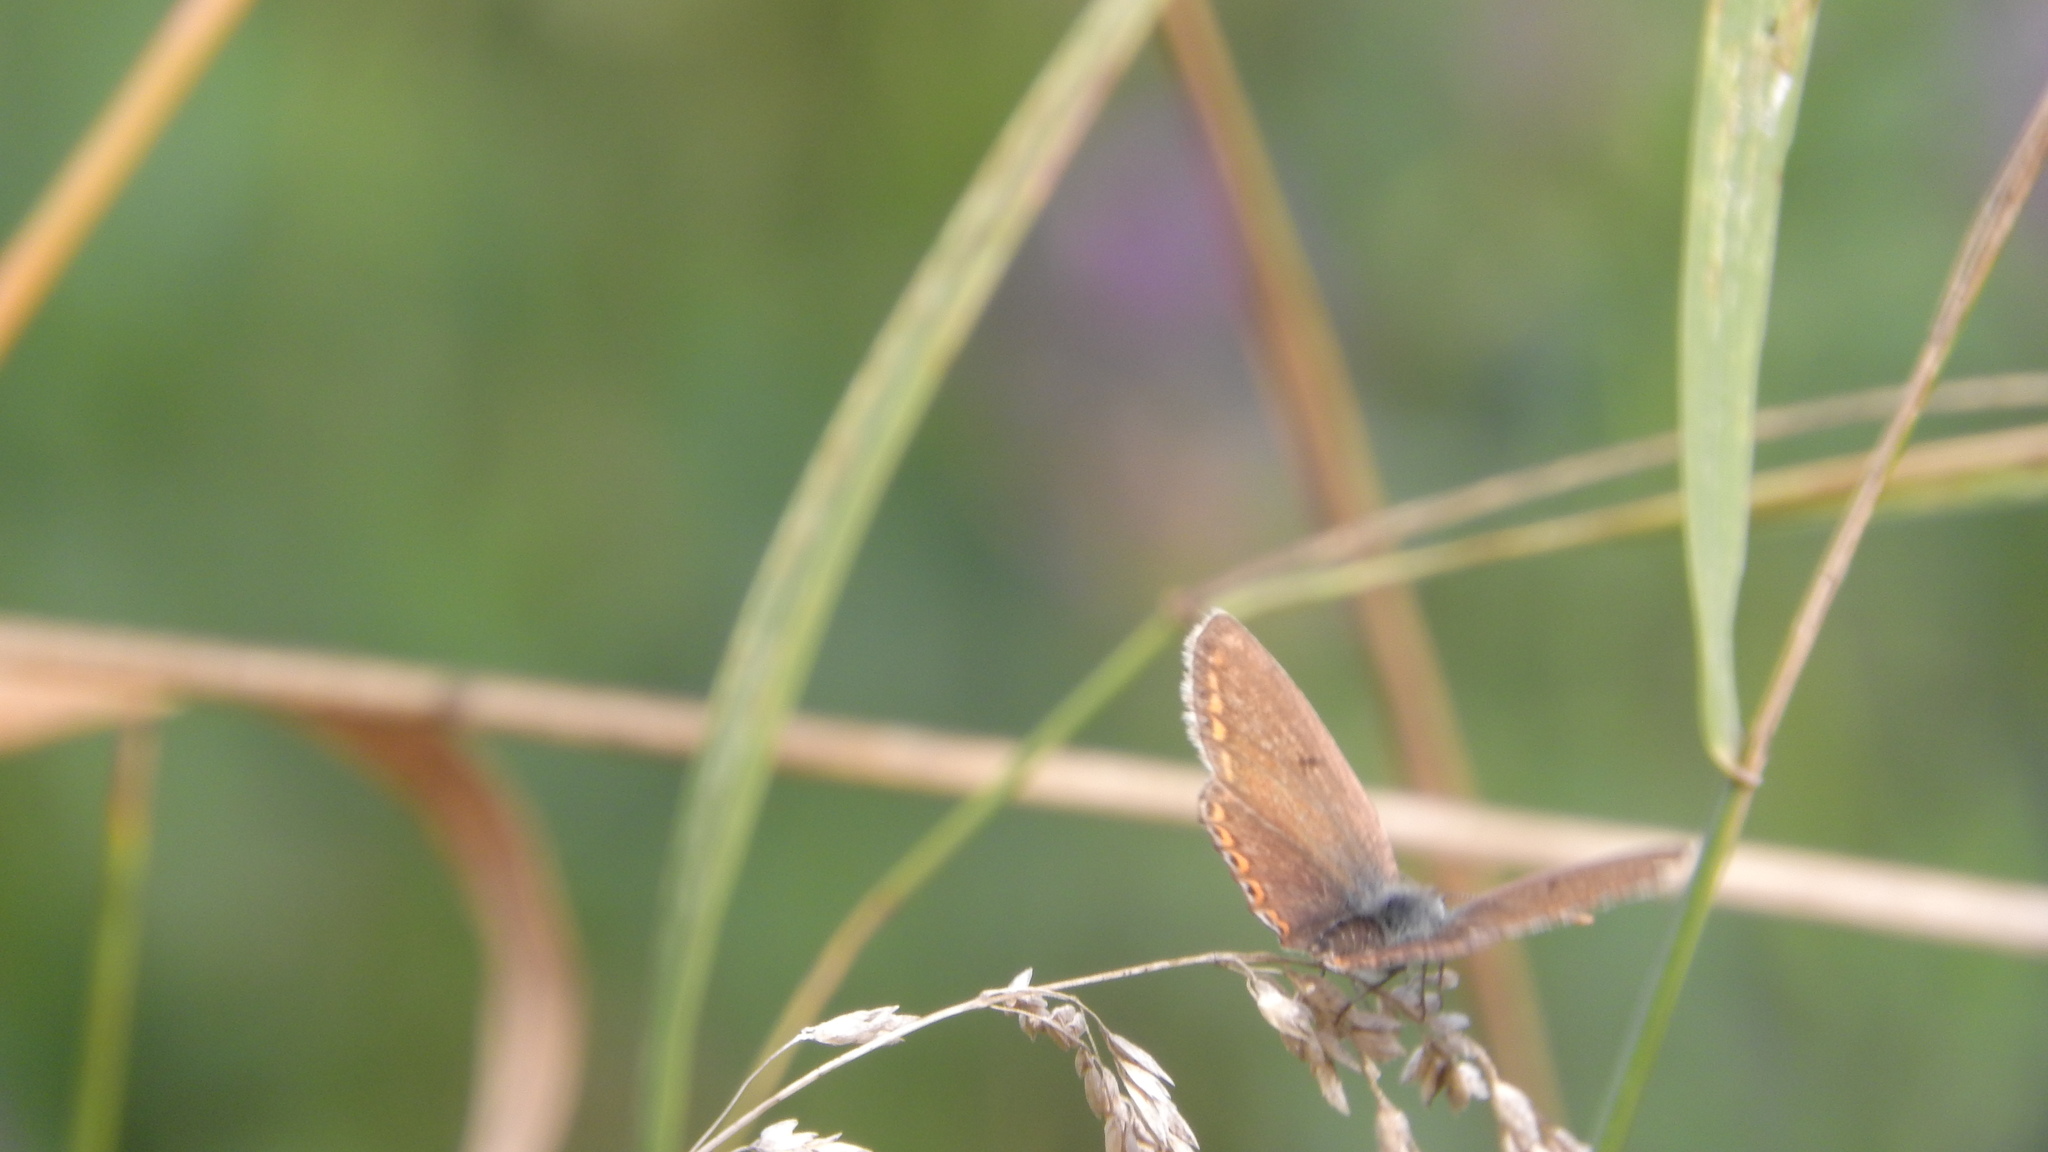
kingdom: Animalia
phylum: Arthropoda
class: Insecta
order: Lepidoptera
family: Lycaenidae
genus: Polyommatus
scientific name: Polyommatus icarus
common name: Common blue
